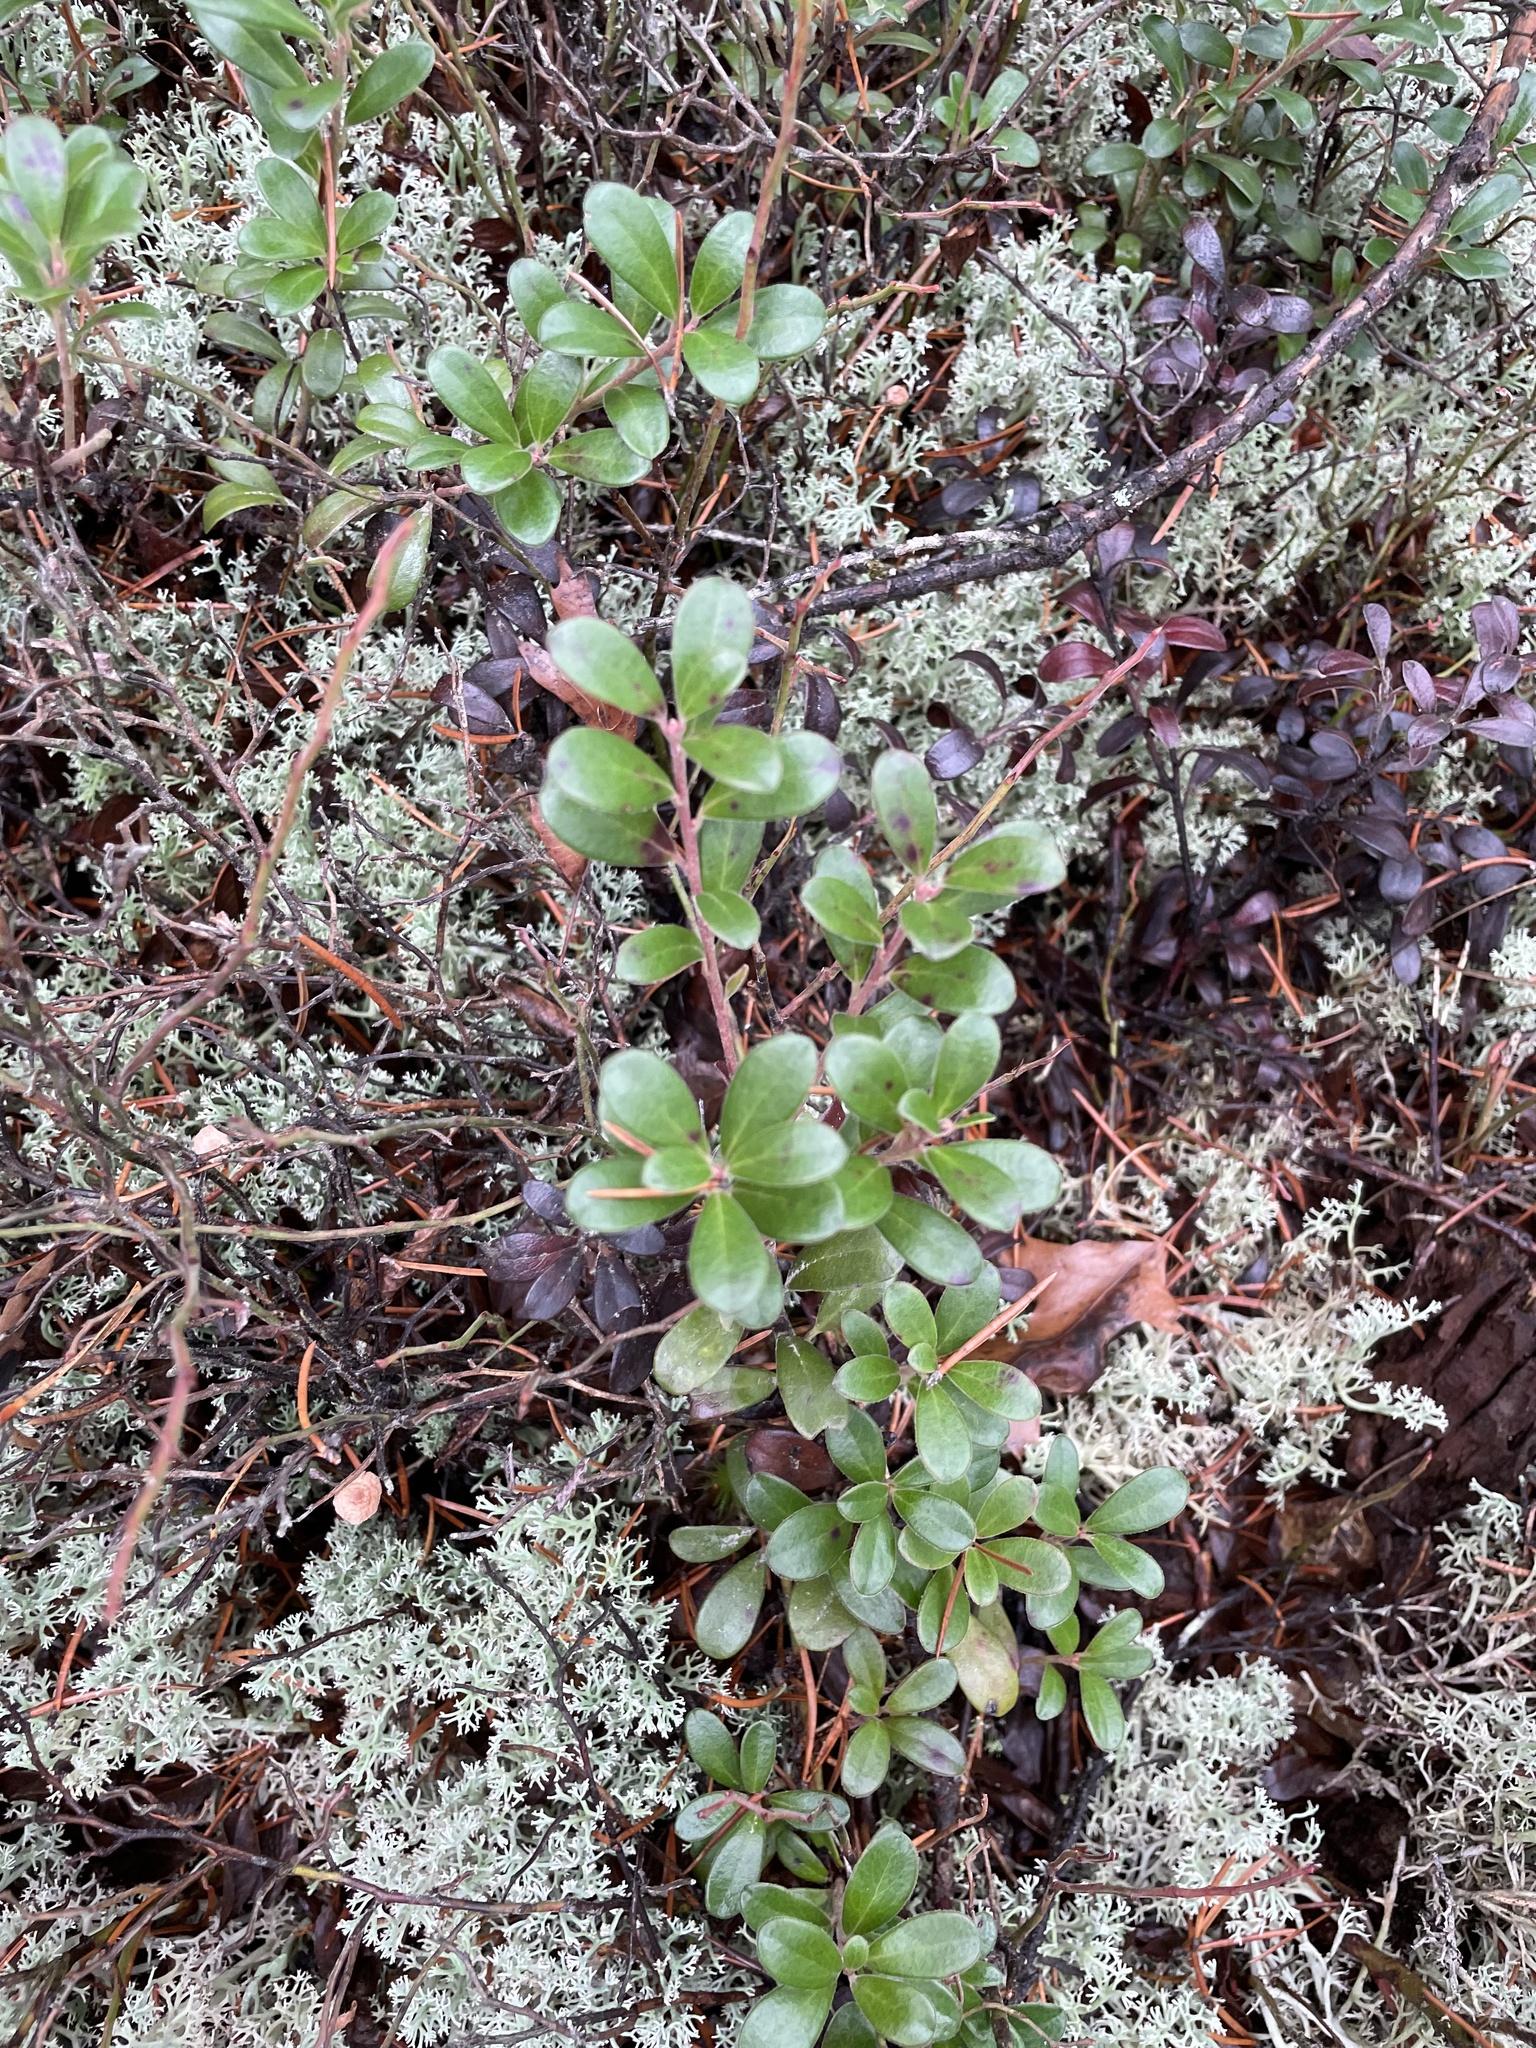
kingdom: Plantae
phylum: Tracheophyta
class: Magnoliopsida
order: Ericales
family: Ericaceae
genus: Arctostaphylos
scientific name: Arctostaphylos uva-ursi
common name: Bearberry
